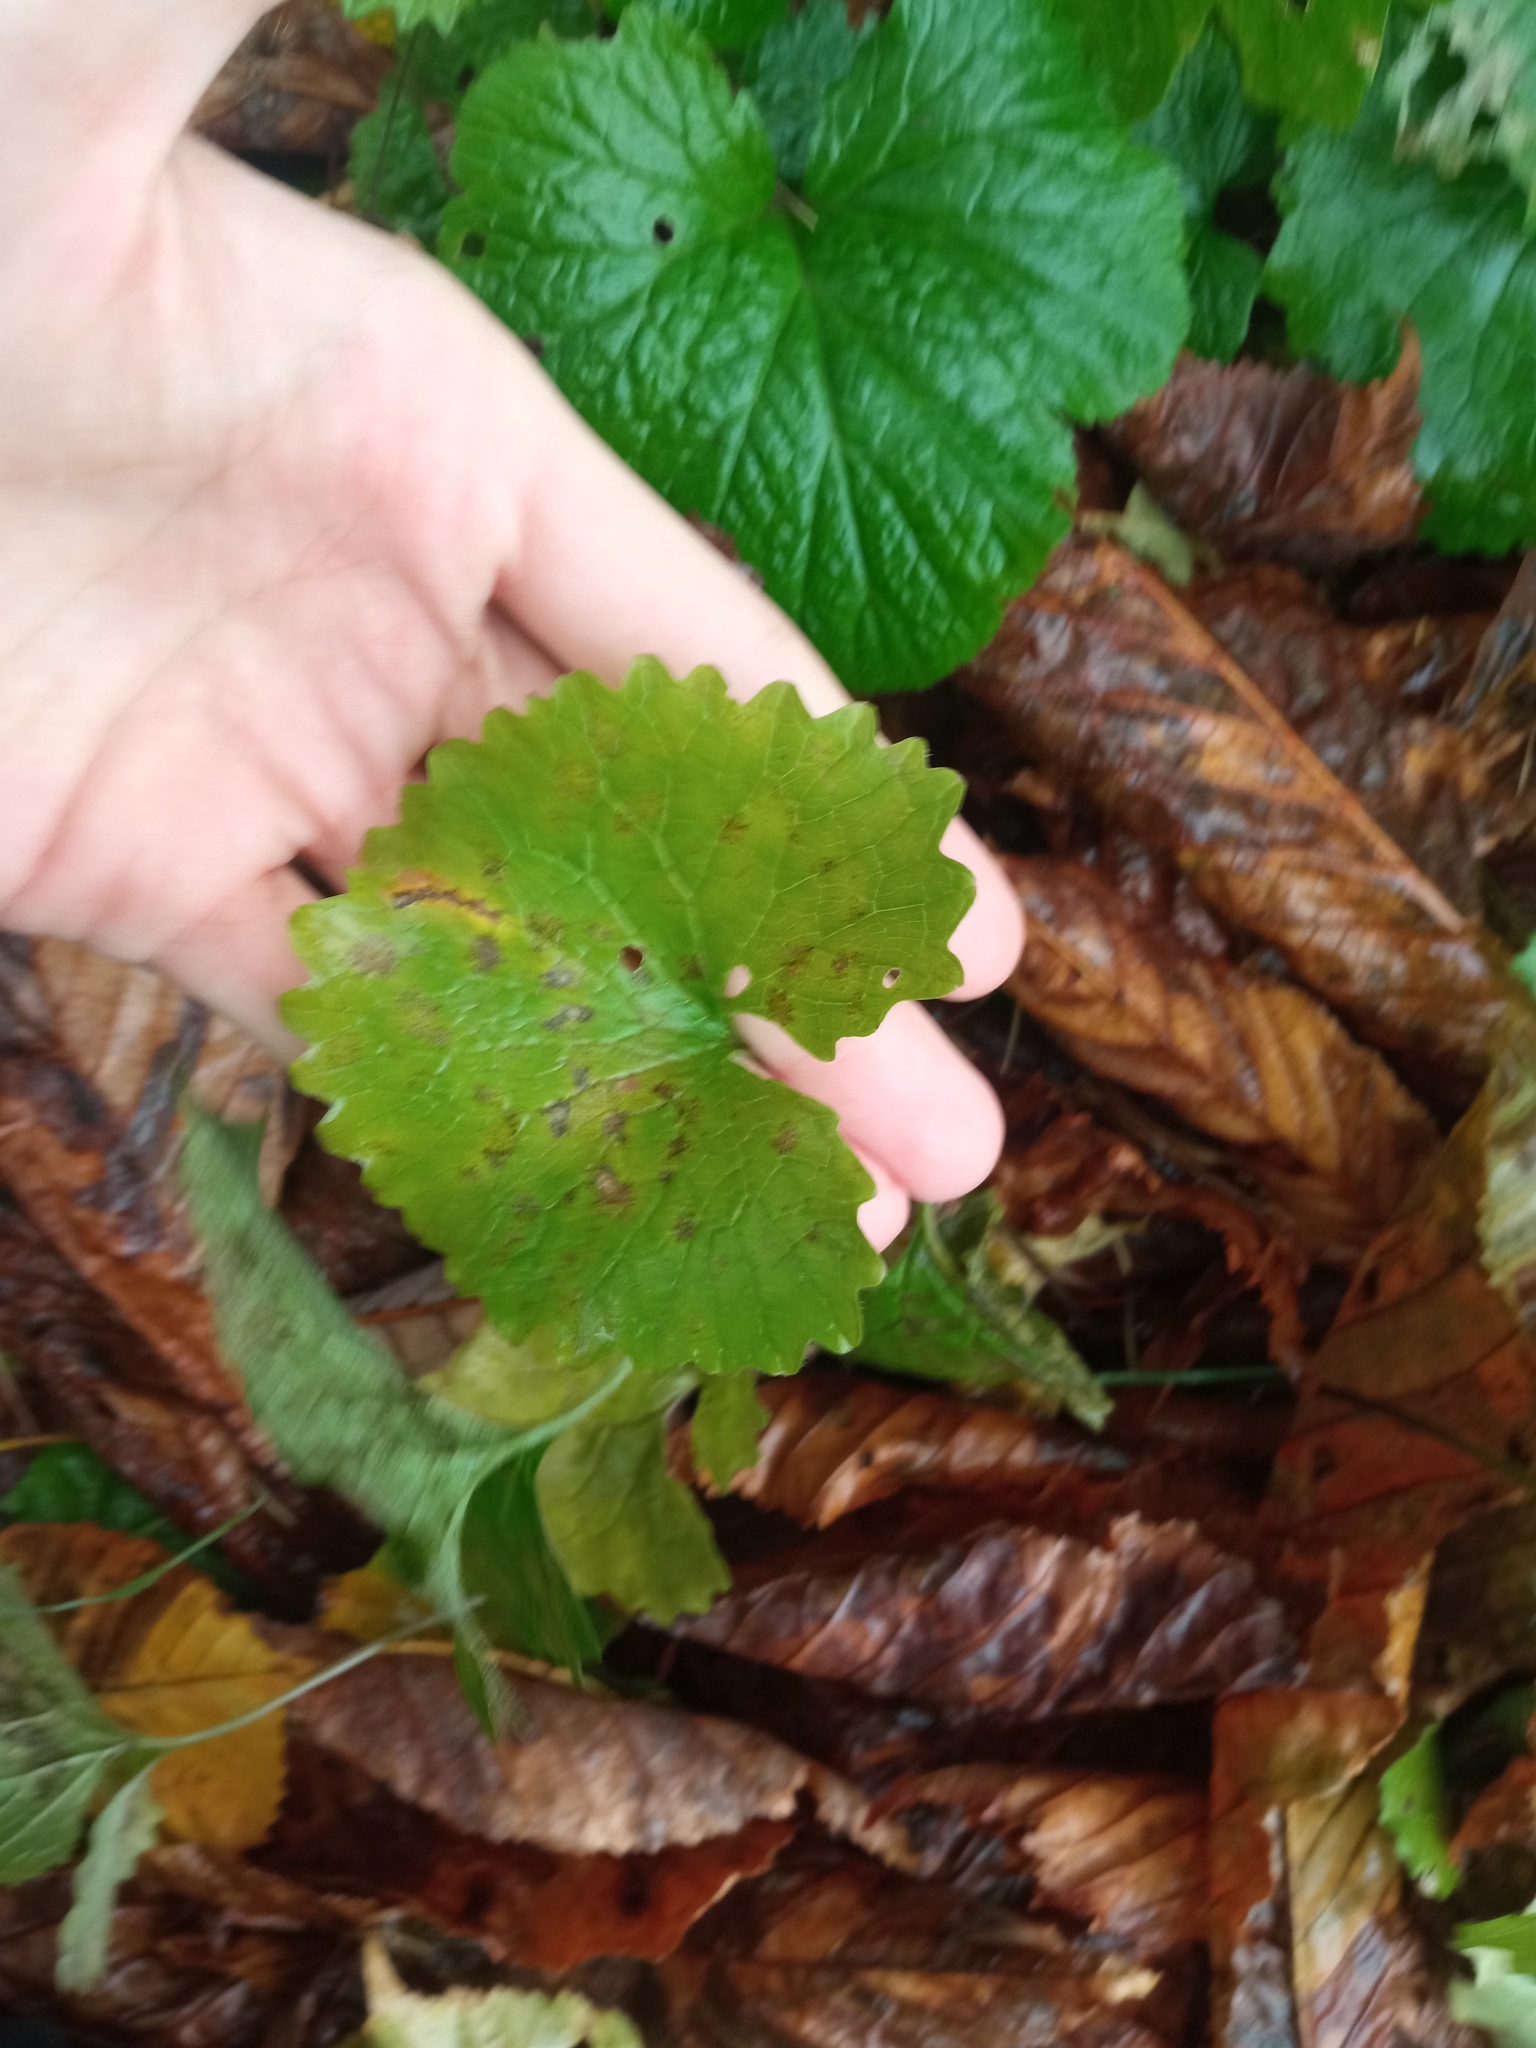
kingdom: Plantae
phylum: Tracheophyta
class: Magnoliopsida
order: Brassicales
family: Brassicaceae
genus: Alliaria
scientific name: Alliaria petiolata
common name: Garlic mustard
